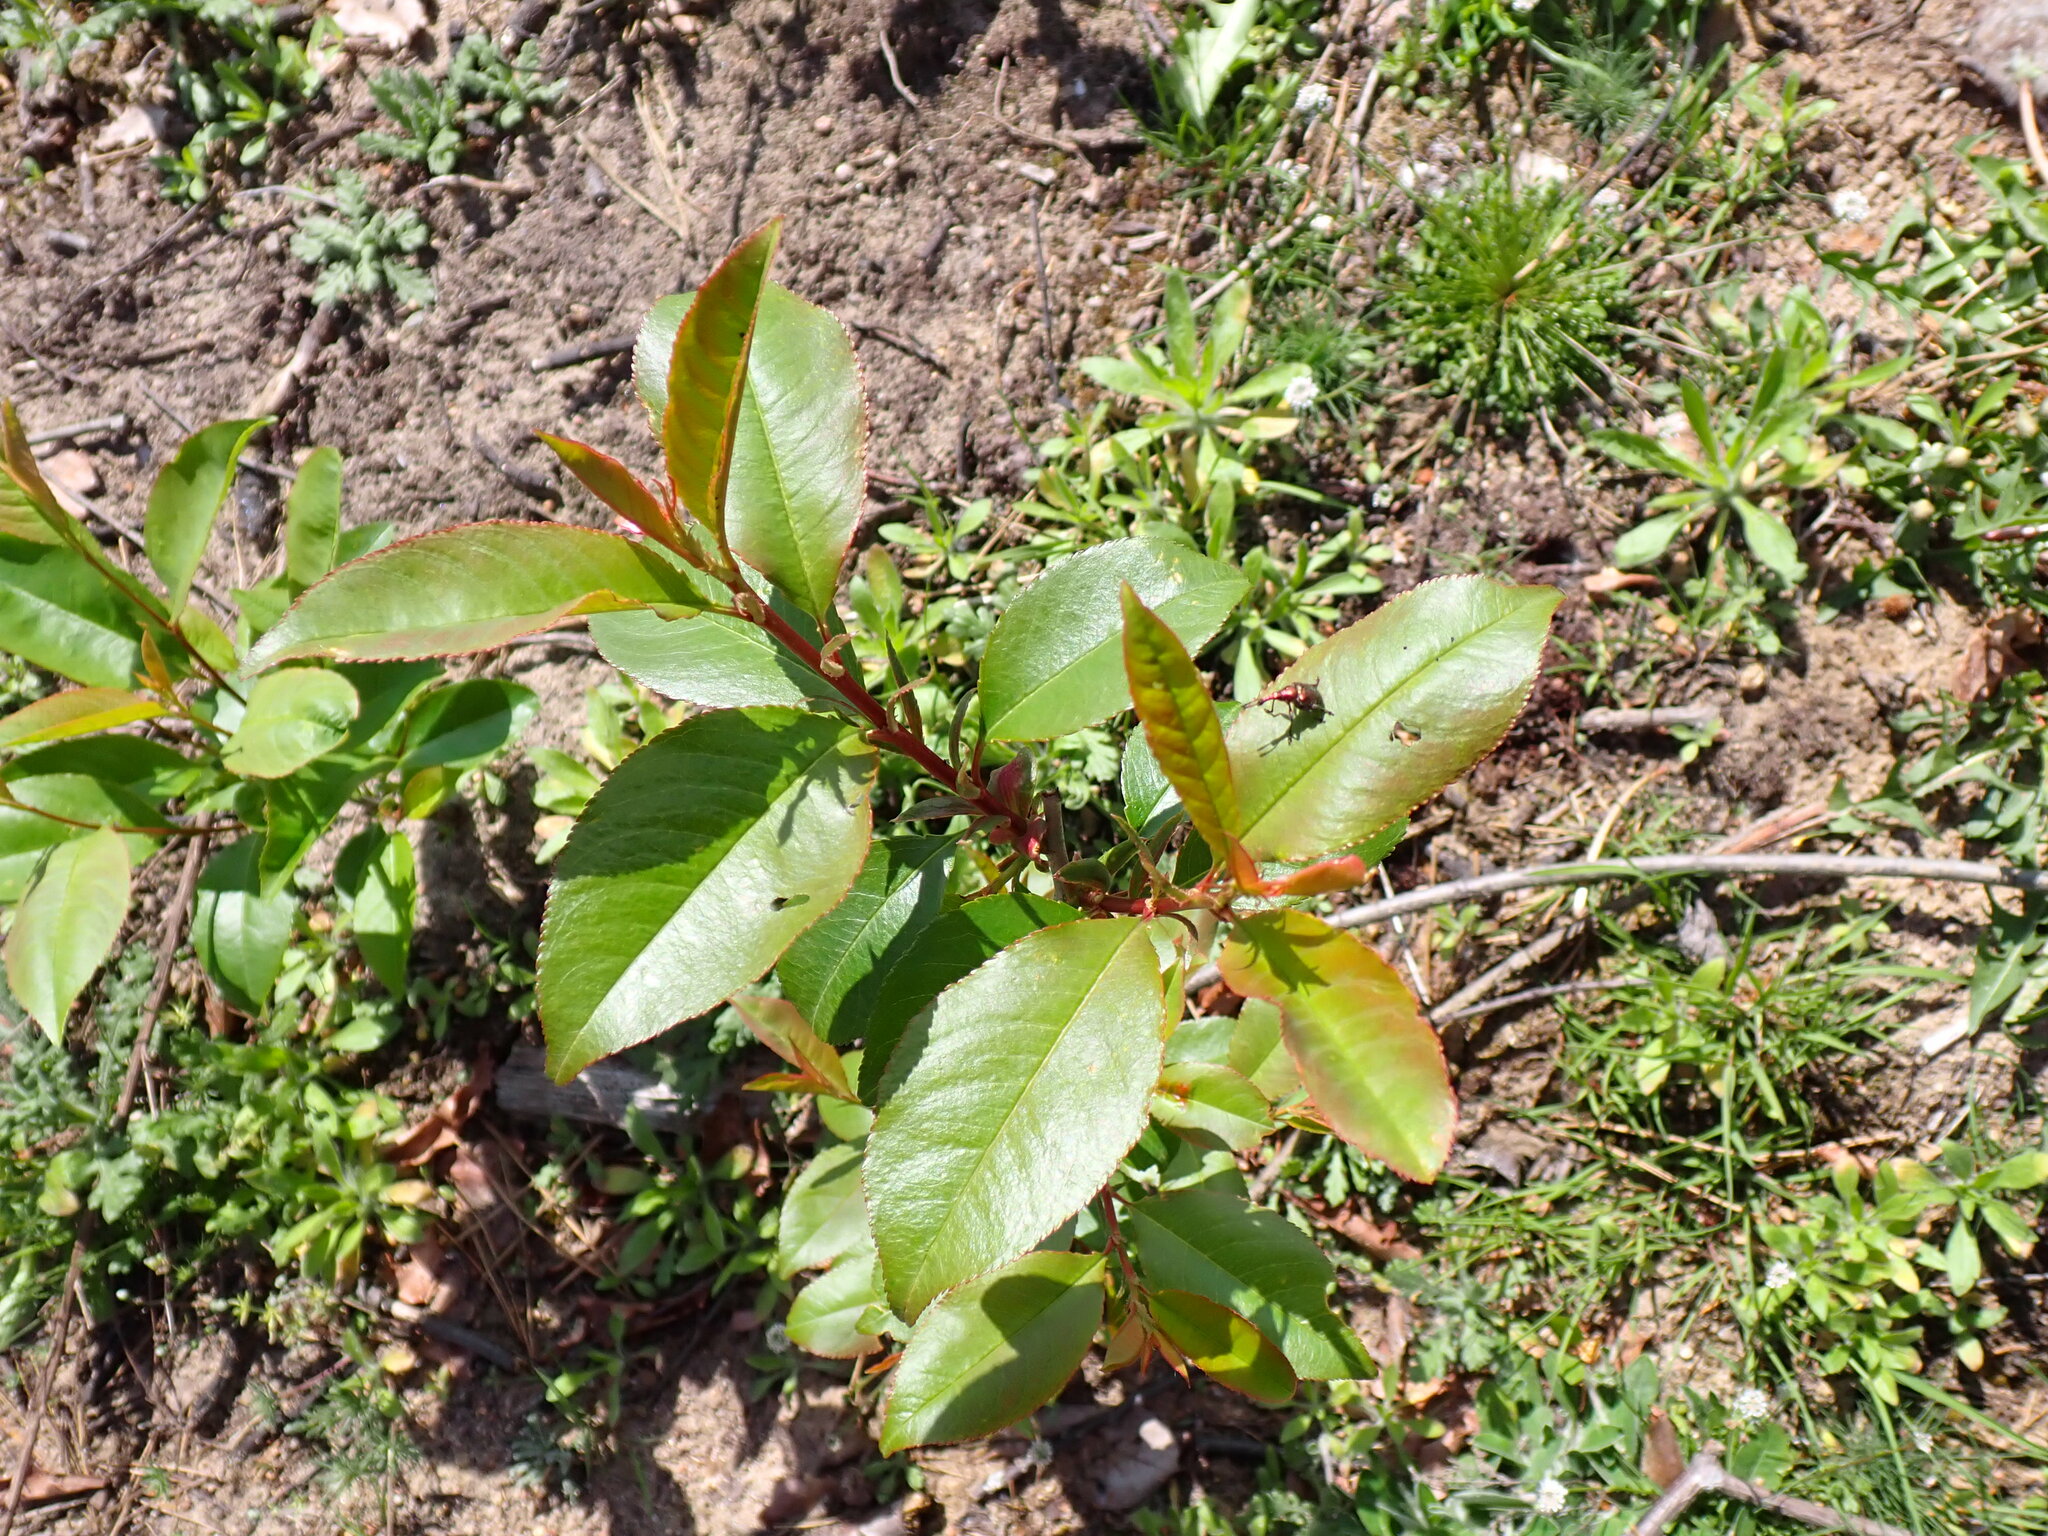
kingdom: Plantae
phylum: Tracheophyta
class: Magnoliopsida
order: Rosales
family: Rosaceae
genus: Prunus
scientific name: Prunus serotina
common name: Black cherry
